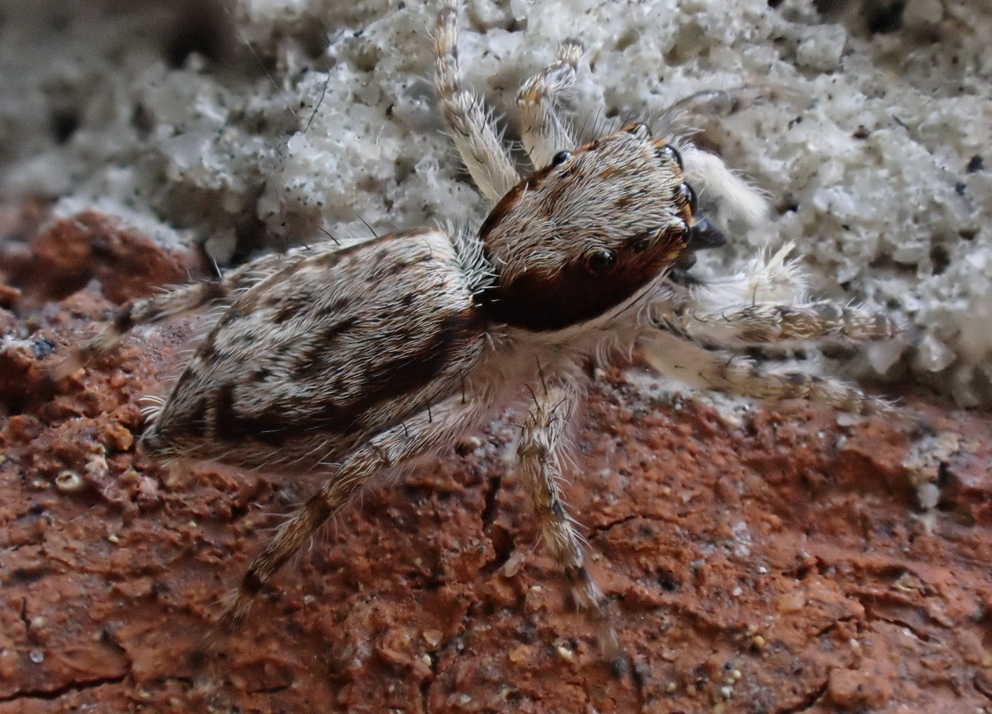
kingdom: Animalia
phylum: Arthropoda
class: Arachnida
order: Araneae
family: Salticidae
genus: Menemerus
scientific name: Menemerus bivittatus
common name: Gray wall jumper
